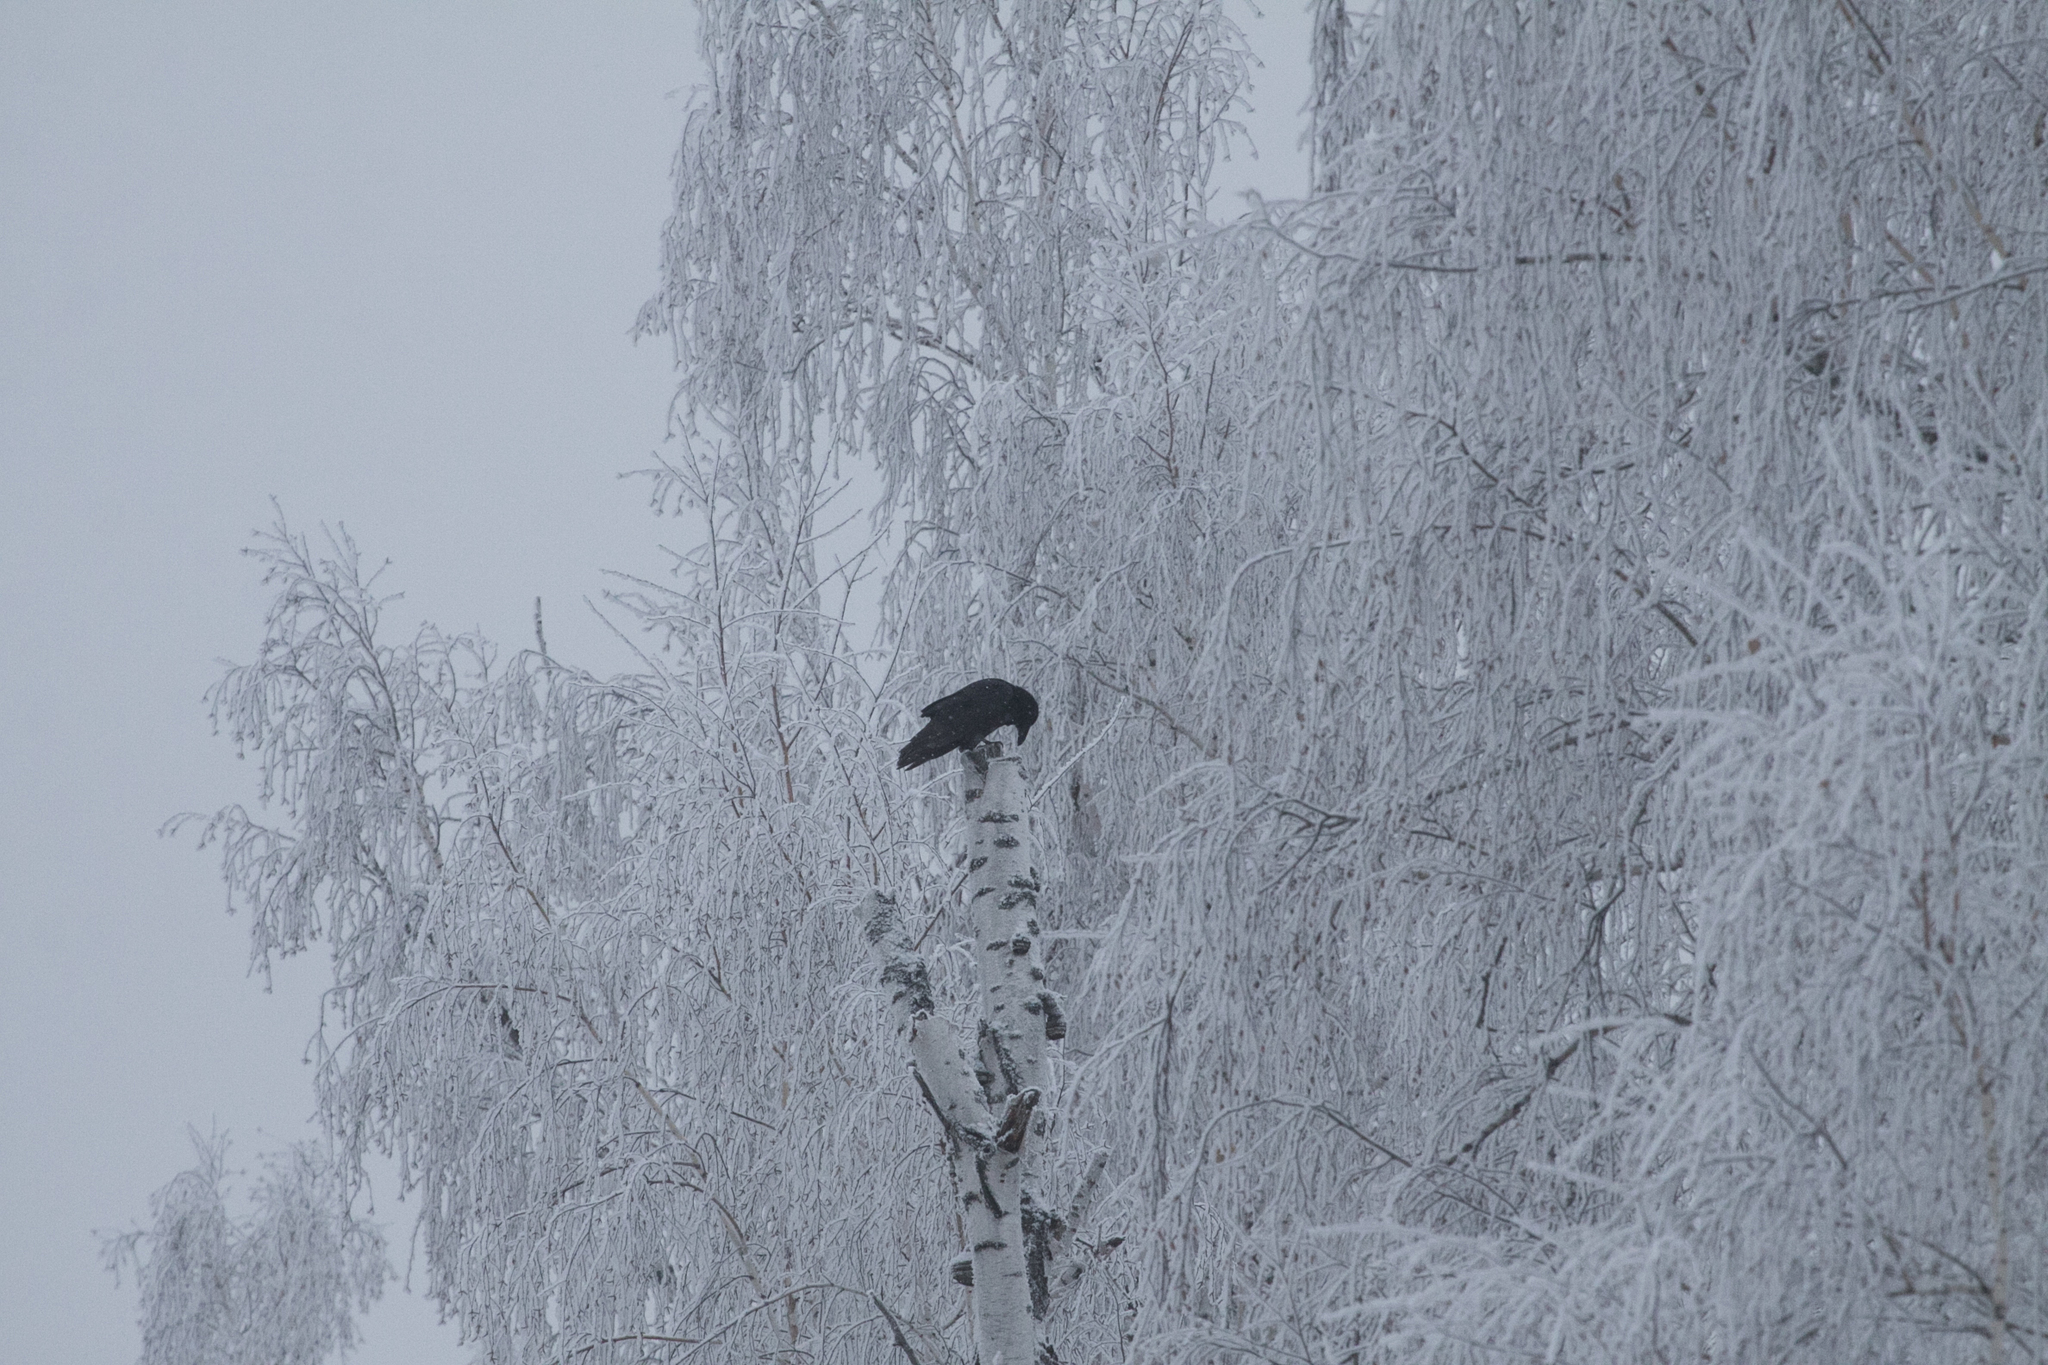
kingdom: Animalia
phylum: Chordata
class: Aves
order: Passeriformes
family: Corvidae
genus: Corvus
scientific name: Corvus corax
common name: Common raven
